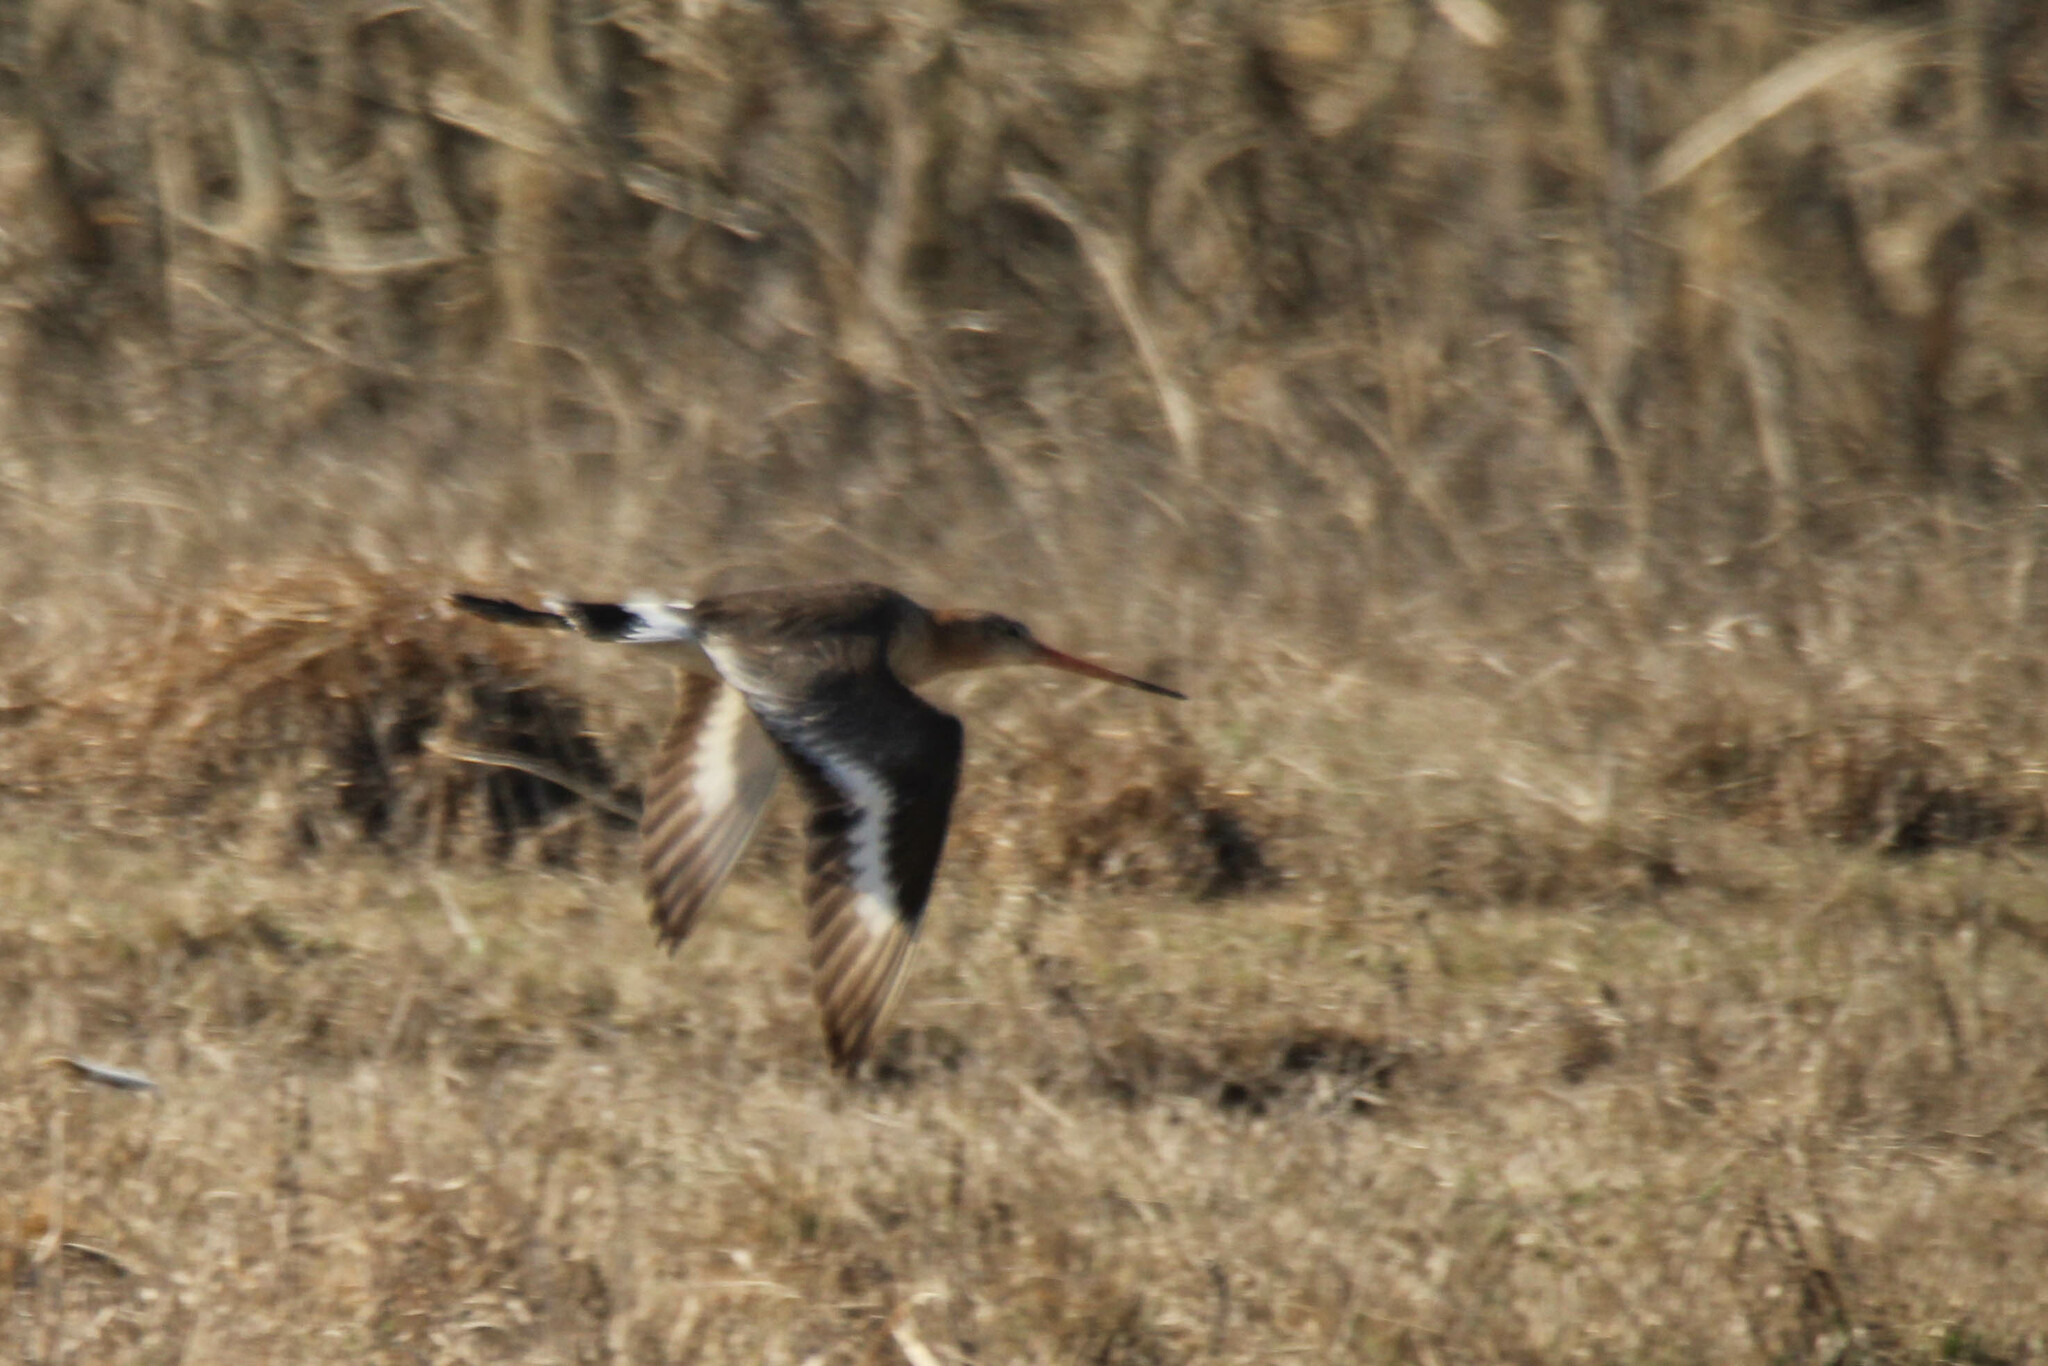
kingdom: Animalia
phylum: Chordata
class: Aves
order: Charadriiformes
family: Scolopacidae
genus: Limosa
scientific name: Limosa limosa
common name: Black-tailed godwit
